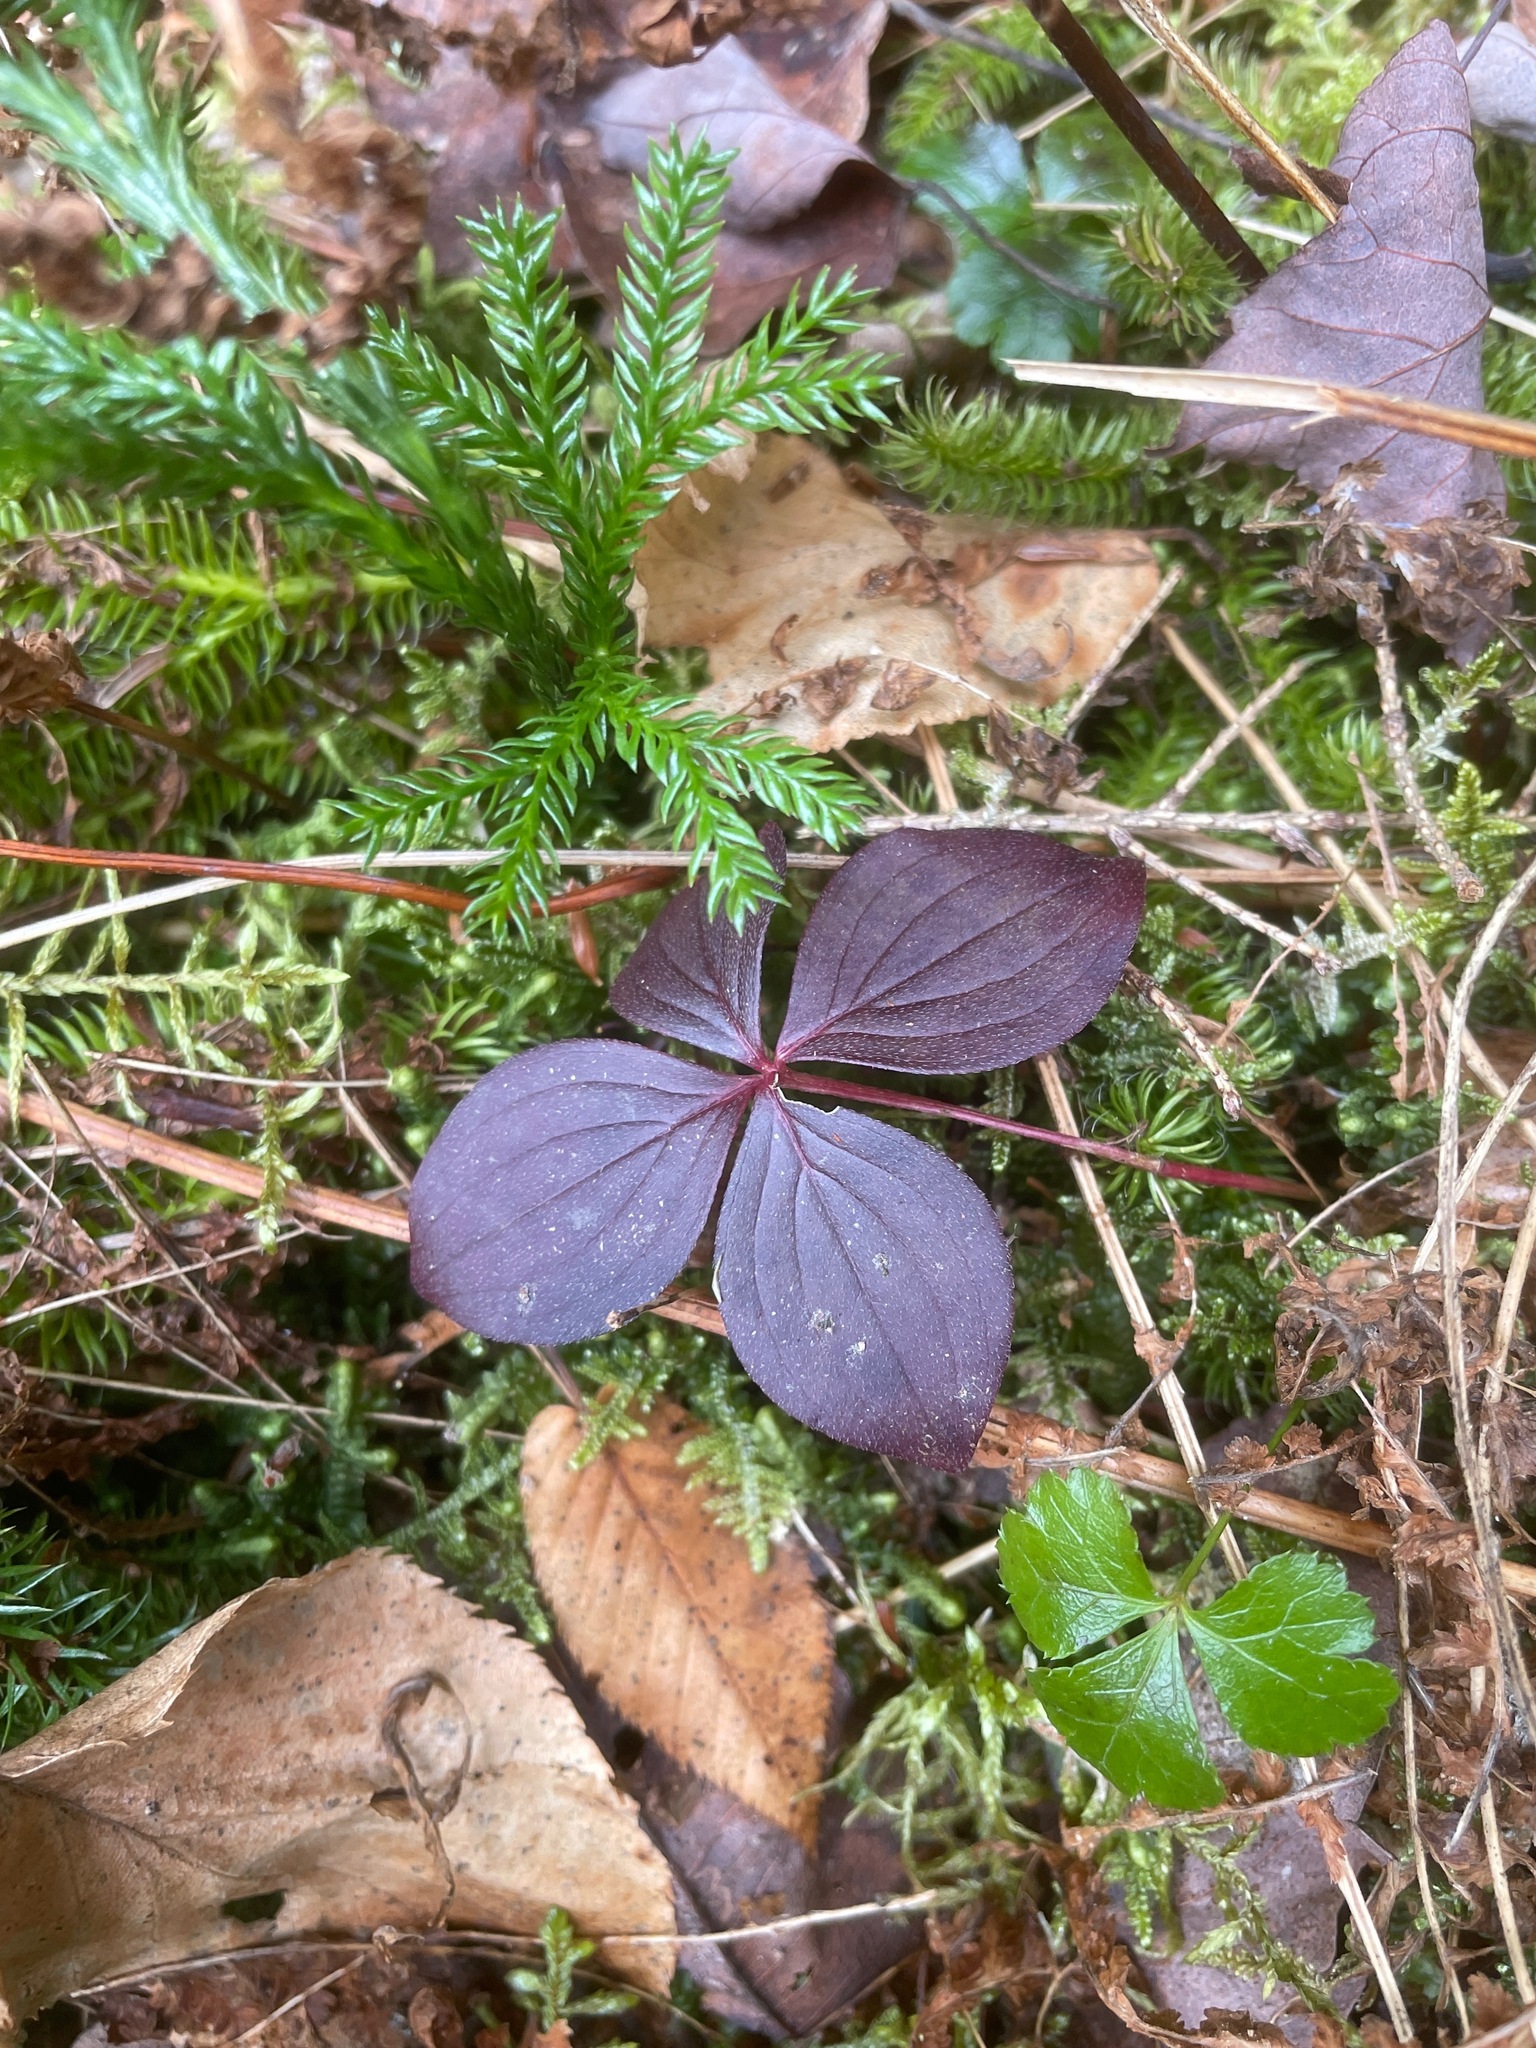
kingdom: Plantae
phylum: Tracheophyta
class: Magnoliopsida
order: Cornales
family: Cornaceae
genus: Cornus
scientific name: Cornus canadensis
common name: Creeping dogwood
